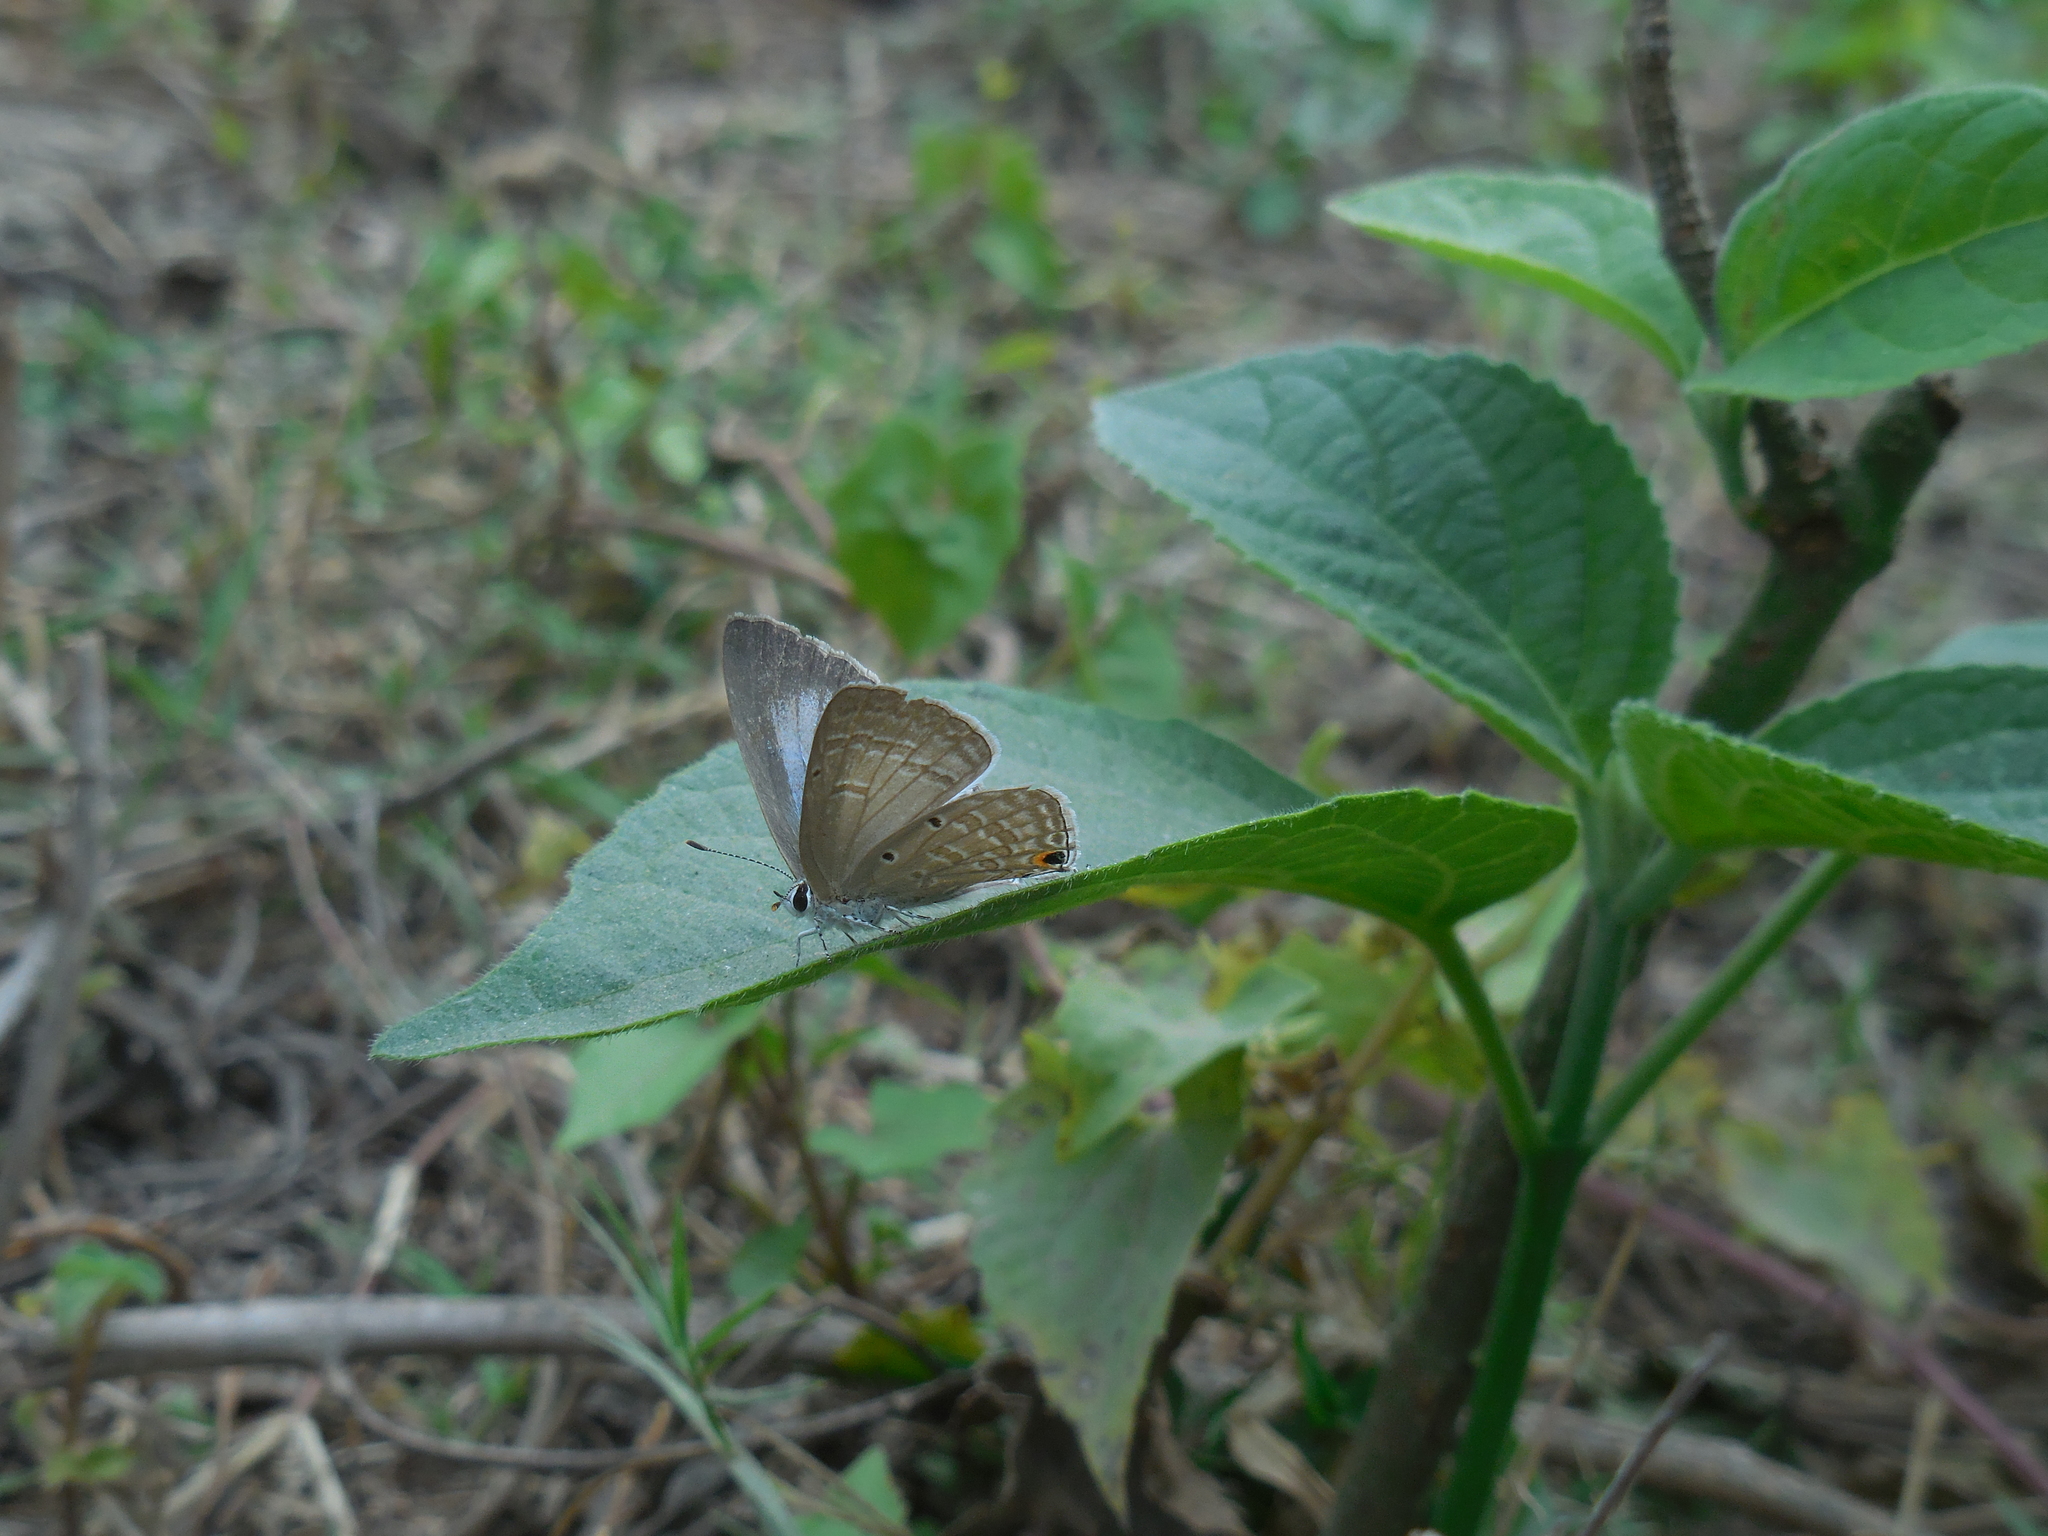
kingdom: Animalia
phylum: Arthropoda
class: Insecta
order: Lepidoptera
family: Lycaenidae
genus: Euchrysops
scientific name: Euchrysops cnejus
